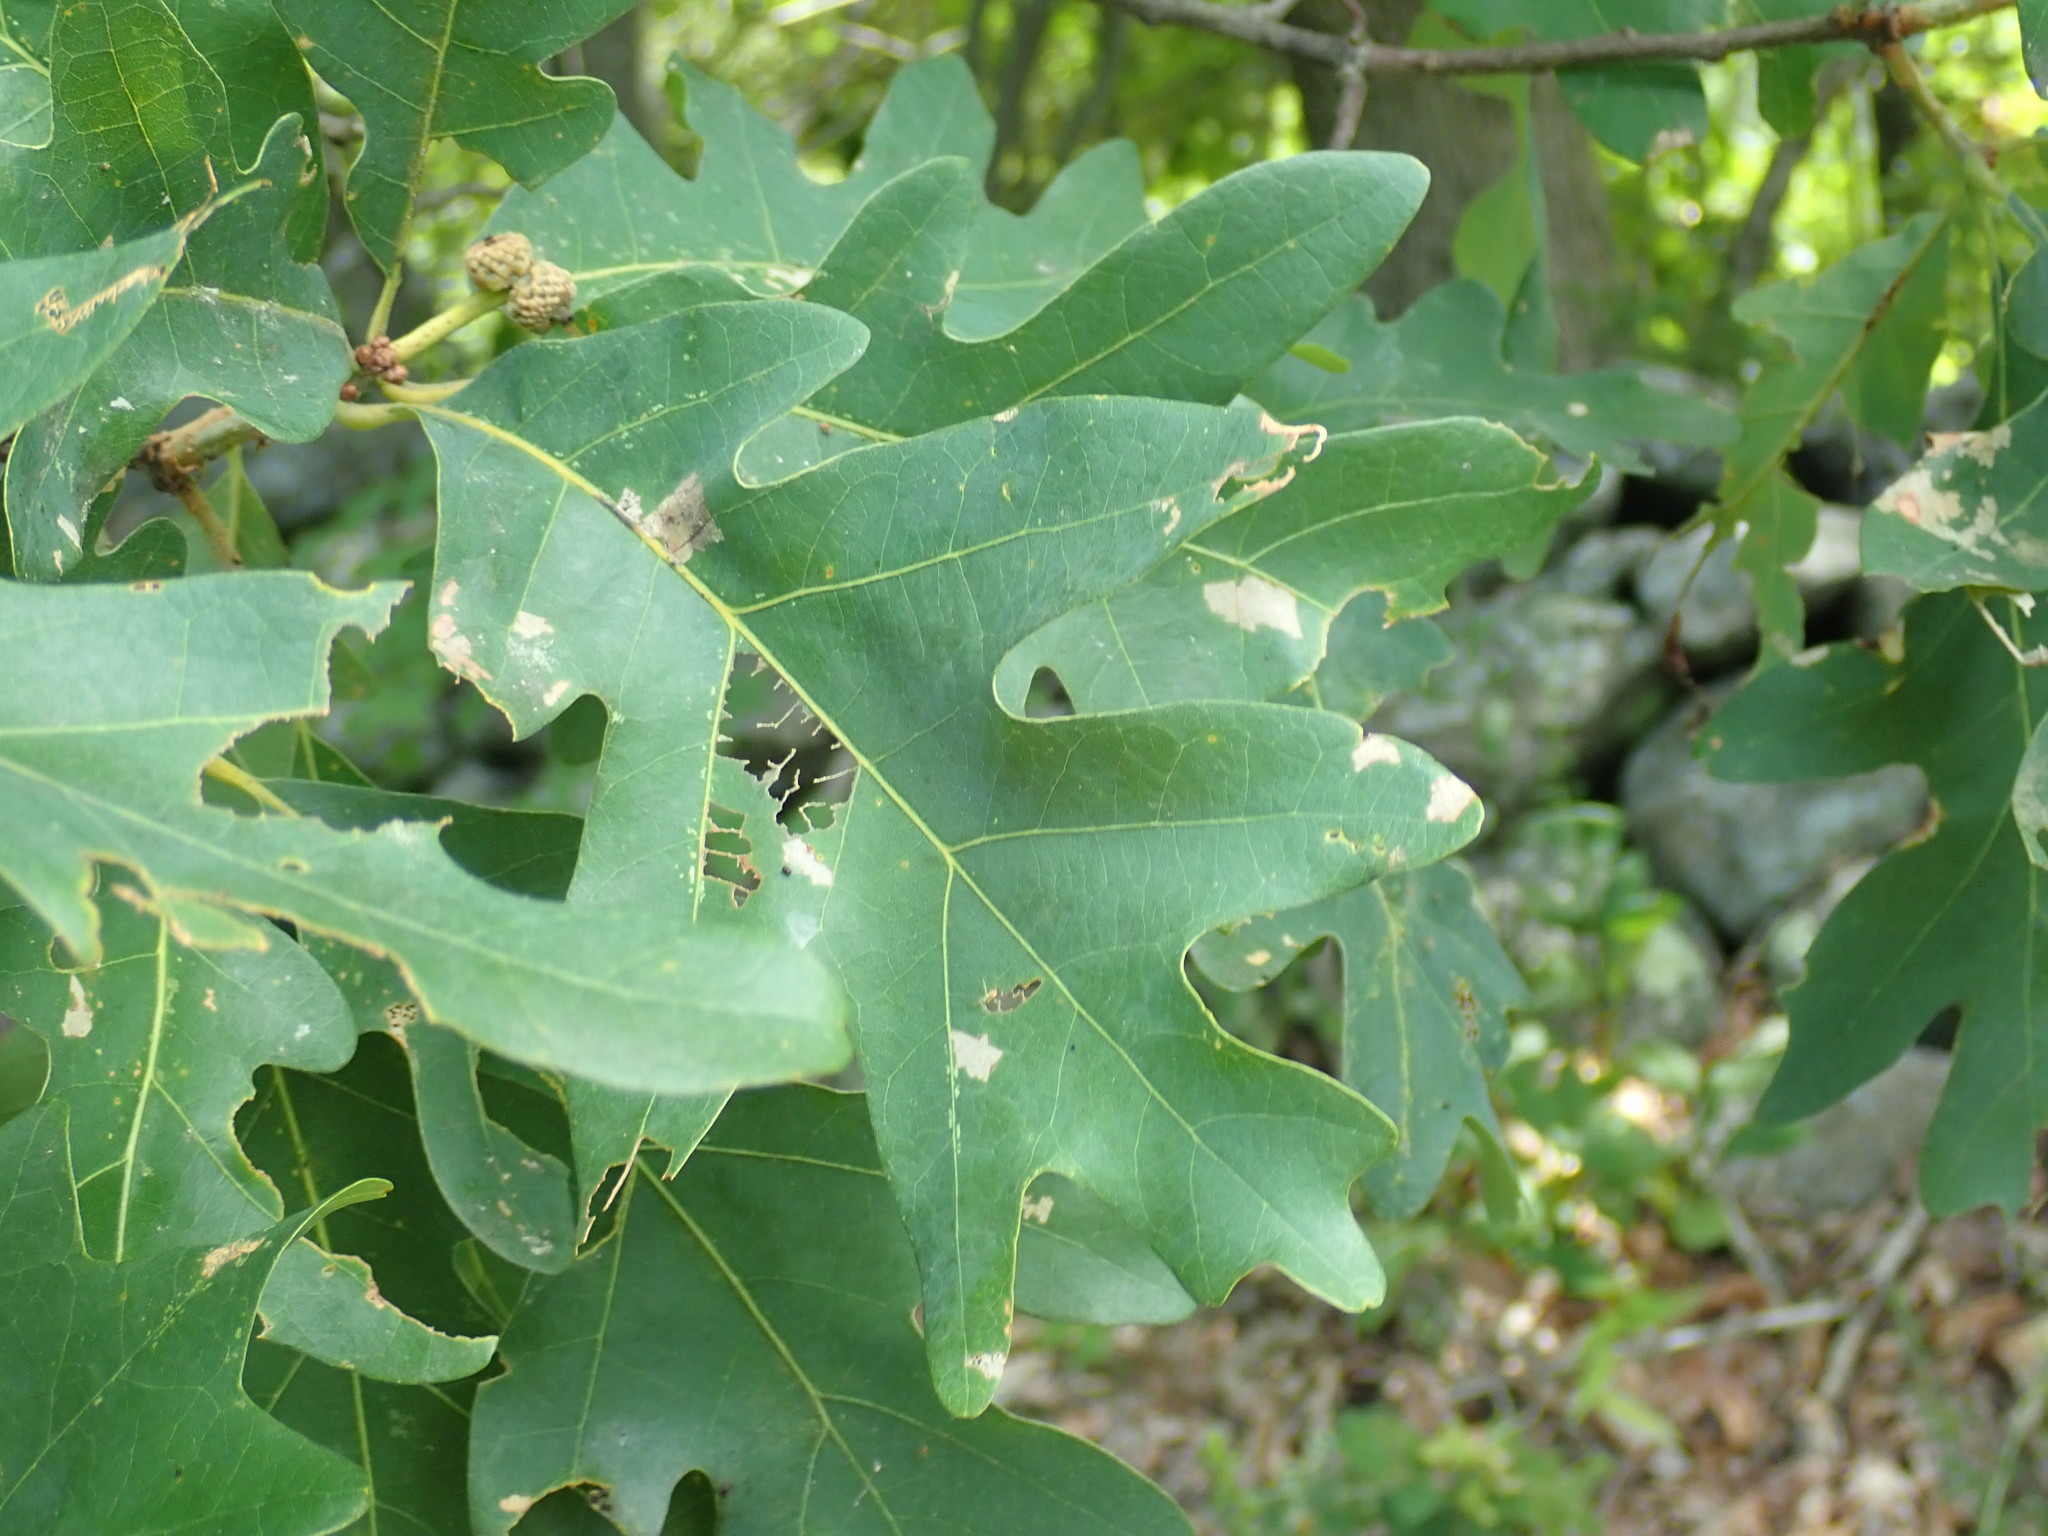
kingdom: Plantae
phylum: Tracheophyta
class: Magnoliopsida
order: Fagales
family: Fagaceae
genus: Quercus
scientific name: Quercus alba
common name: White oak
